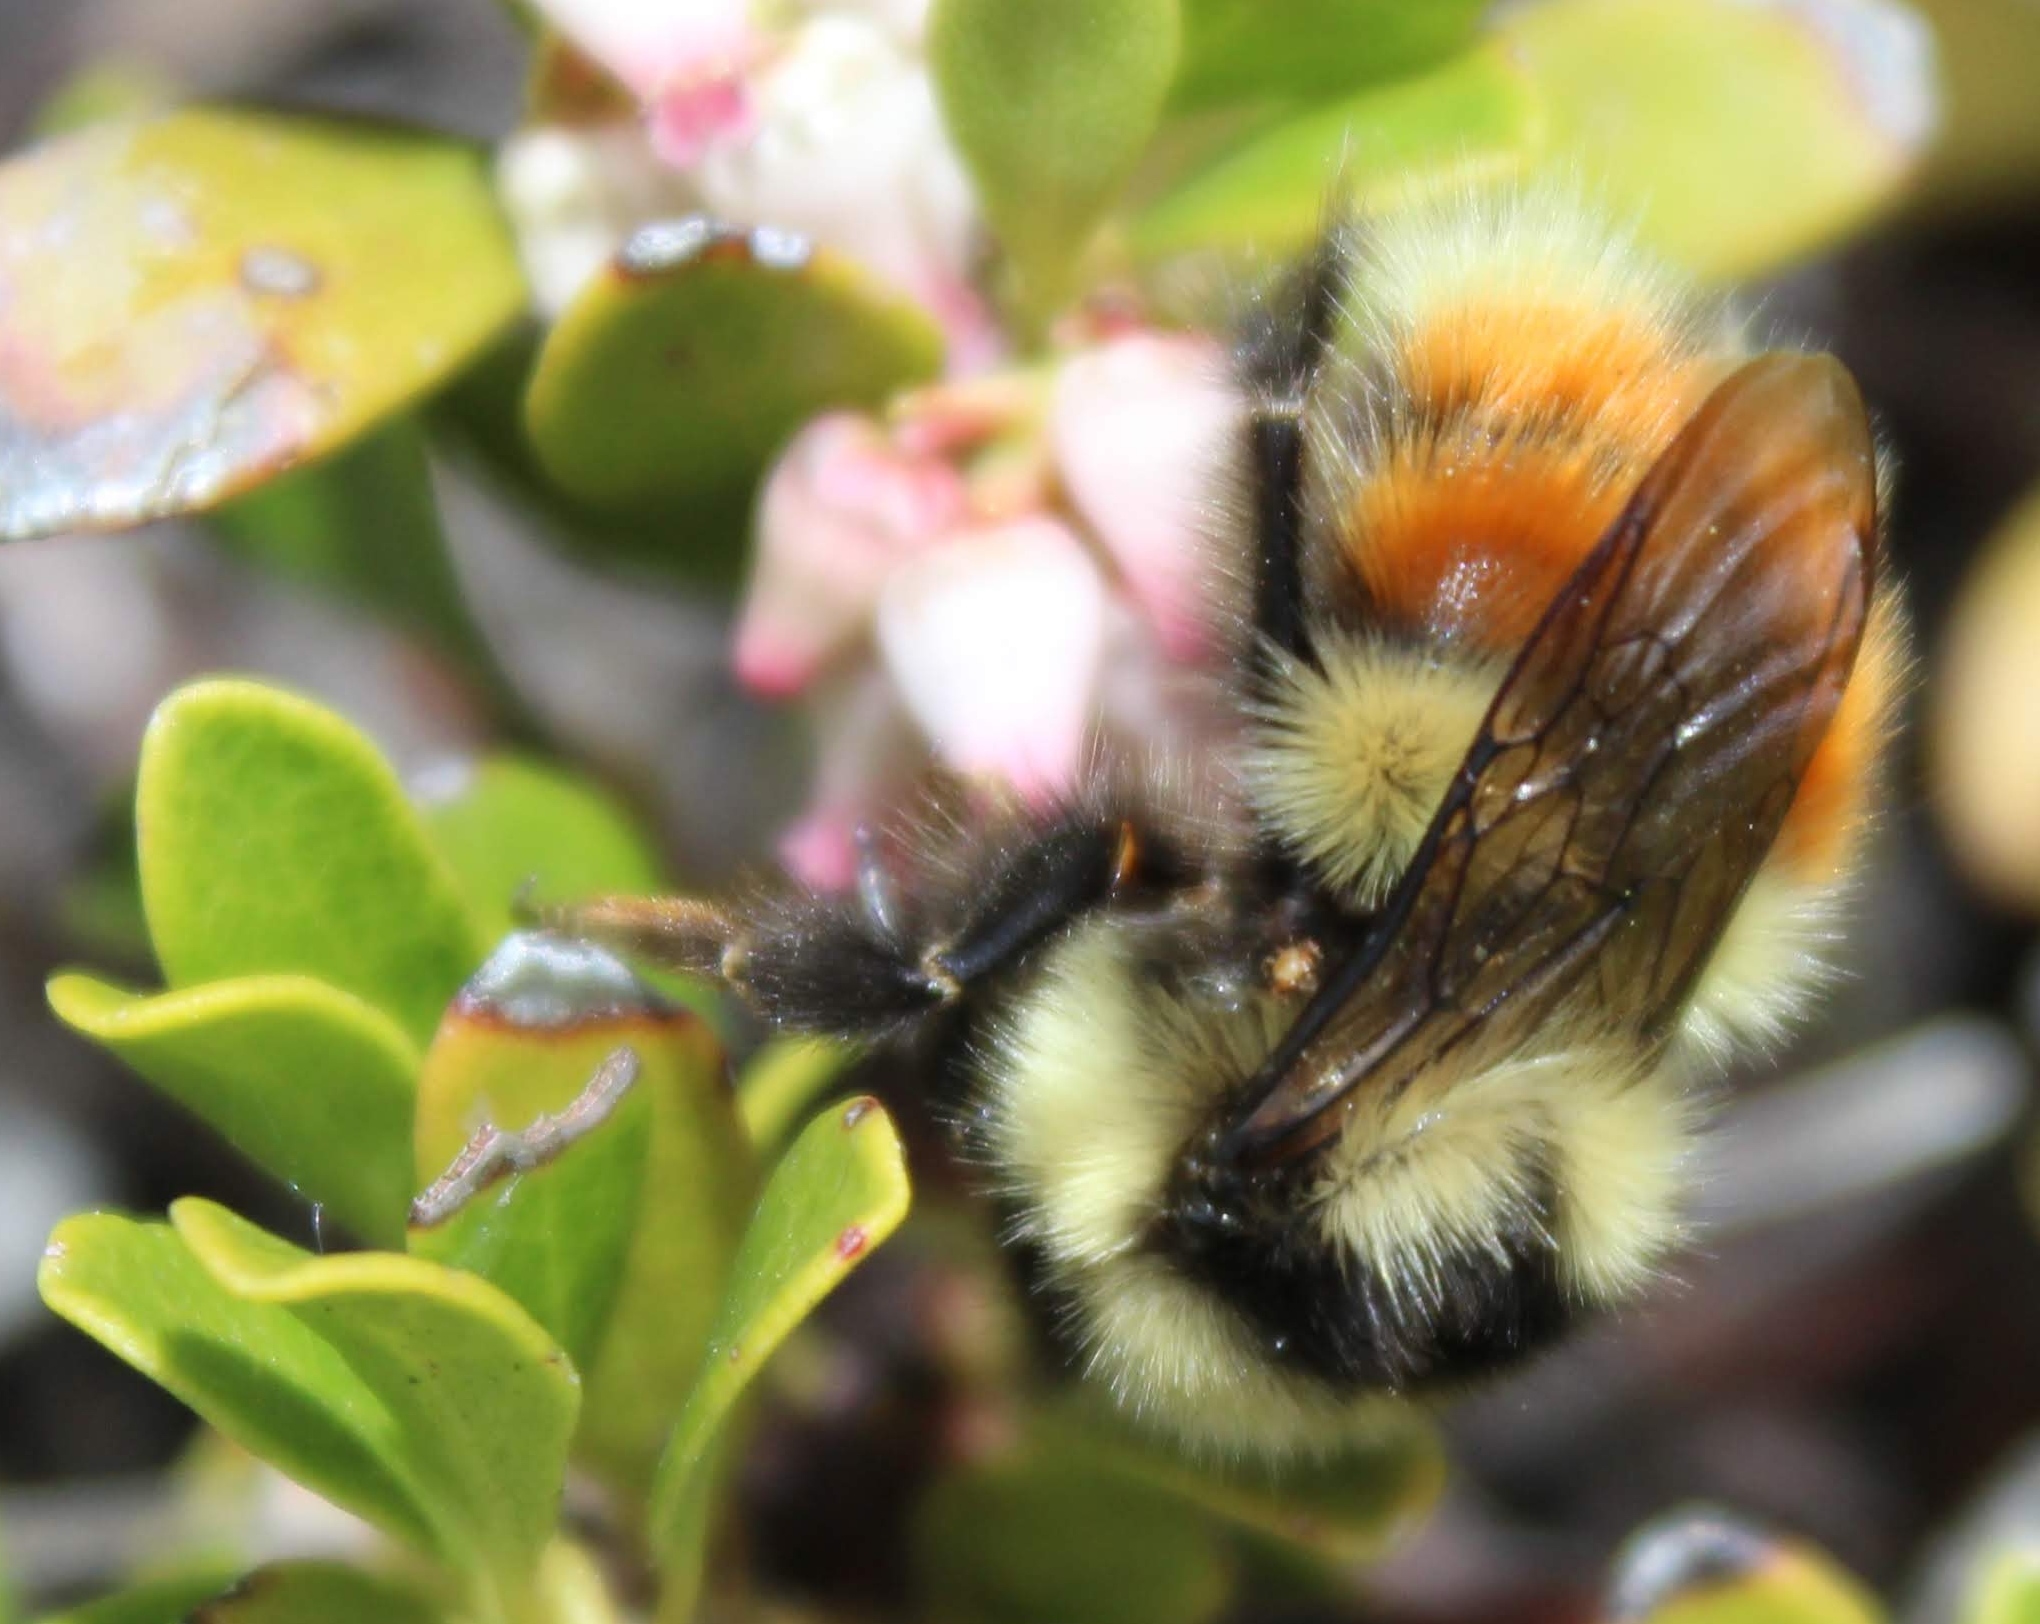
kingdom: Animalia
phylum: Arthropoda
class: Insecta
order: Hymenoptera
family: Apidae
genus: Bombus
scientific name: Bombus bifarius
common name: Two form bumble bee
